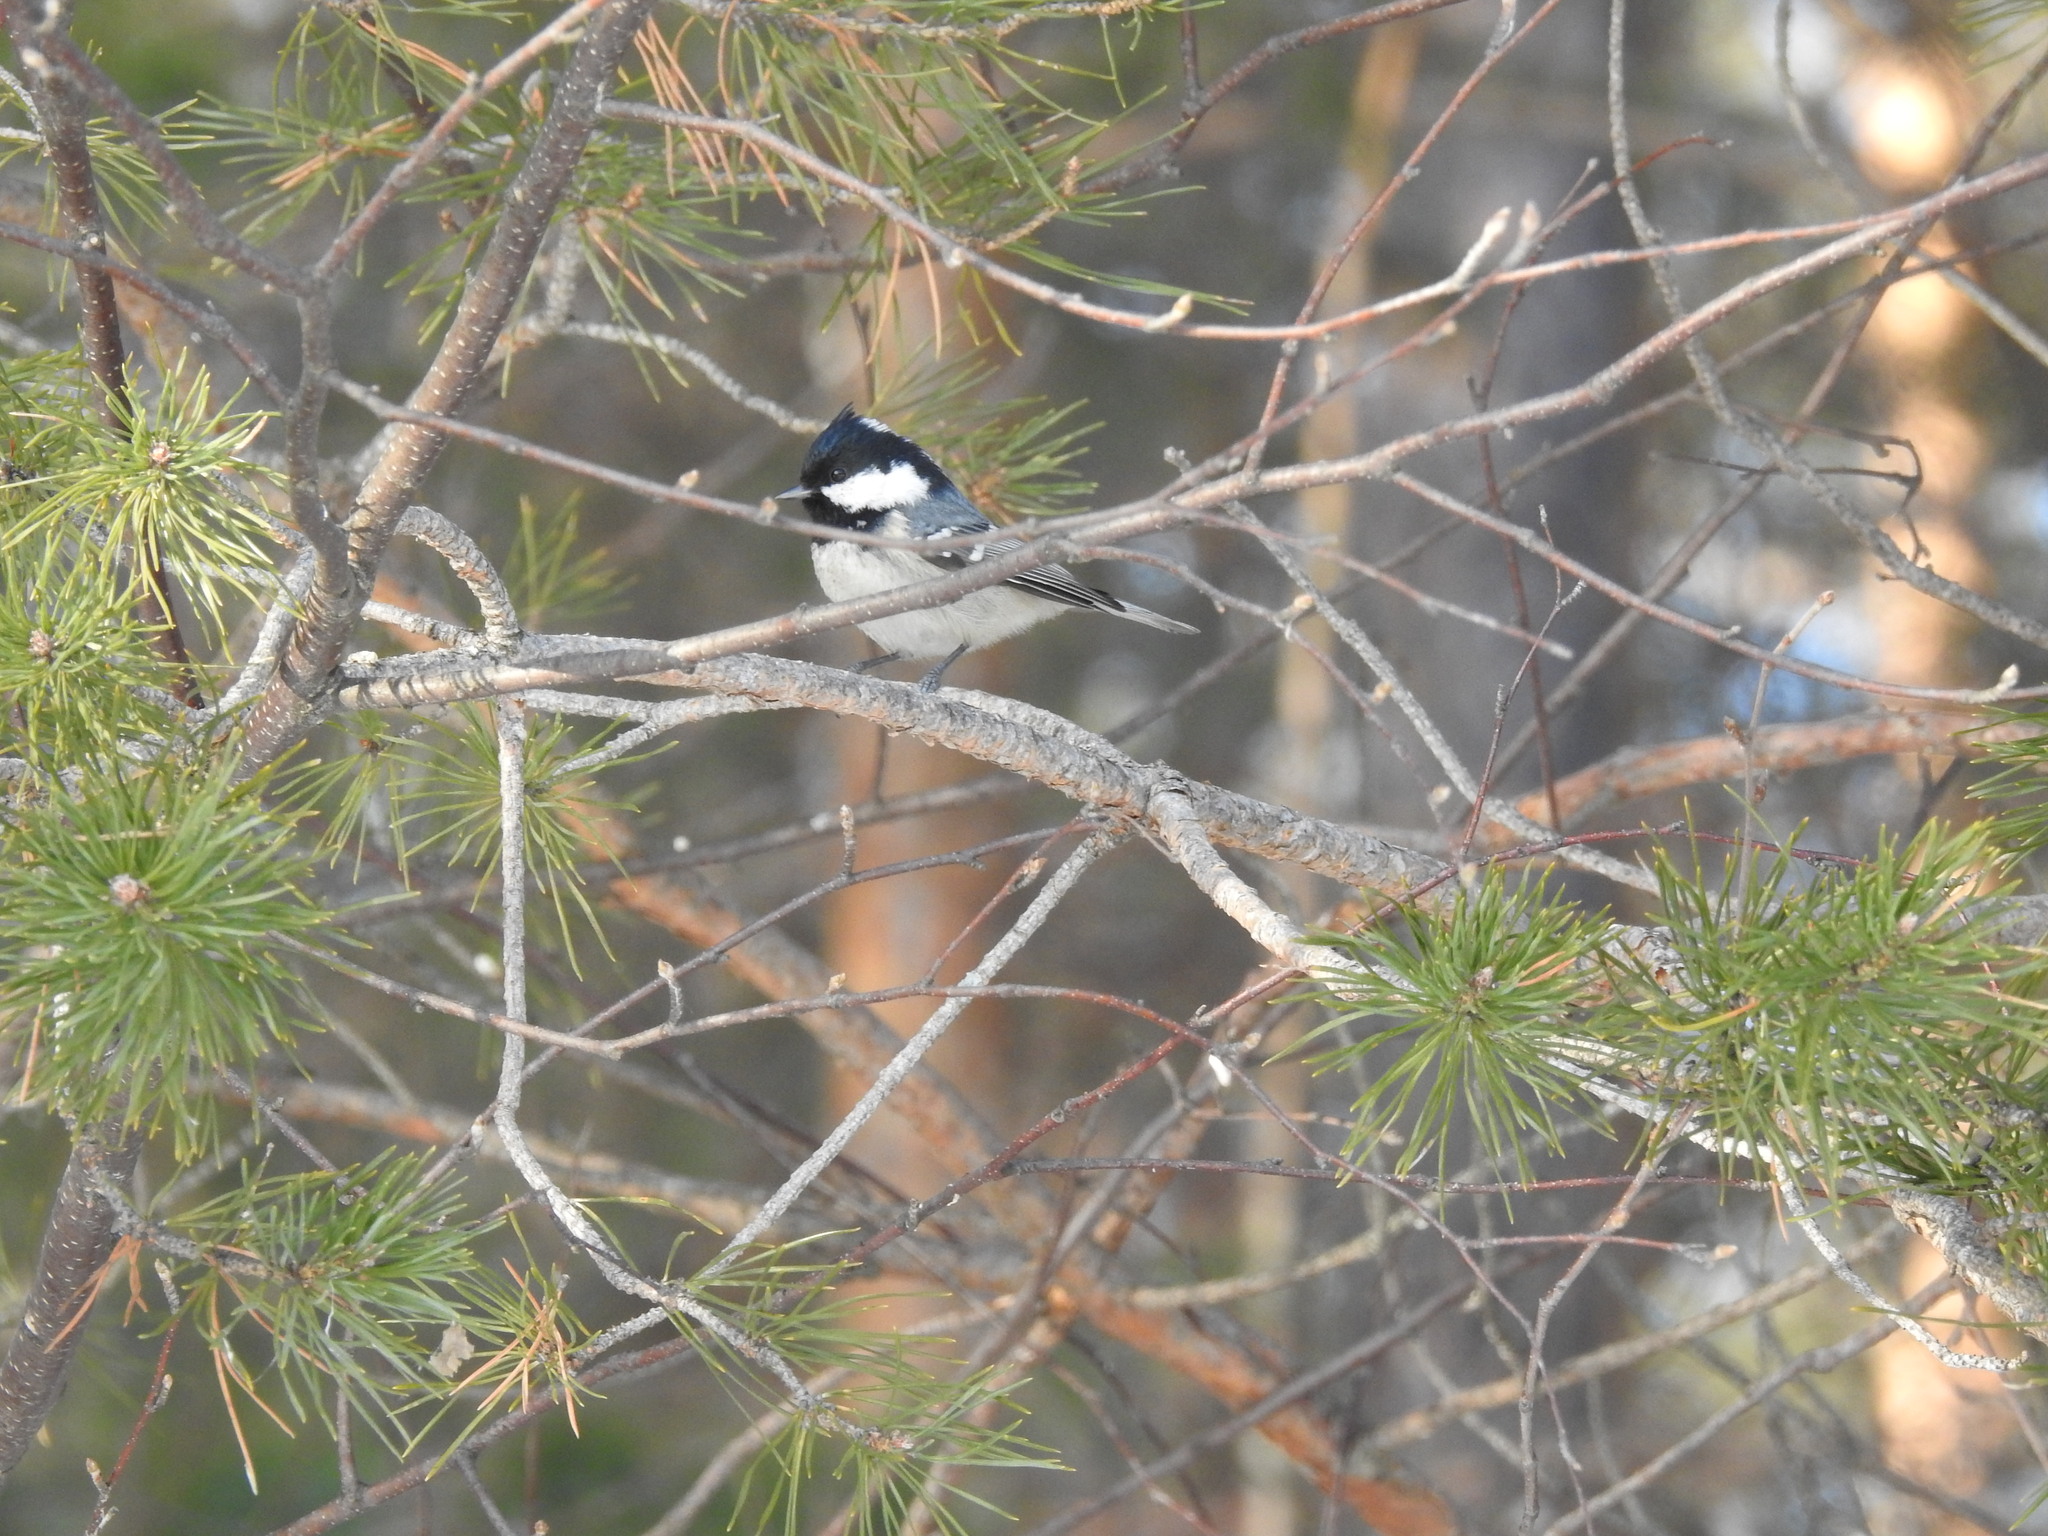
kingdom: Animalia
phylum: Chordata
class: Aves
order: Passeriformes
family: Paridae
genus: Periparus
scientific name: Periparus ater
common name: Coal tit
